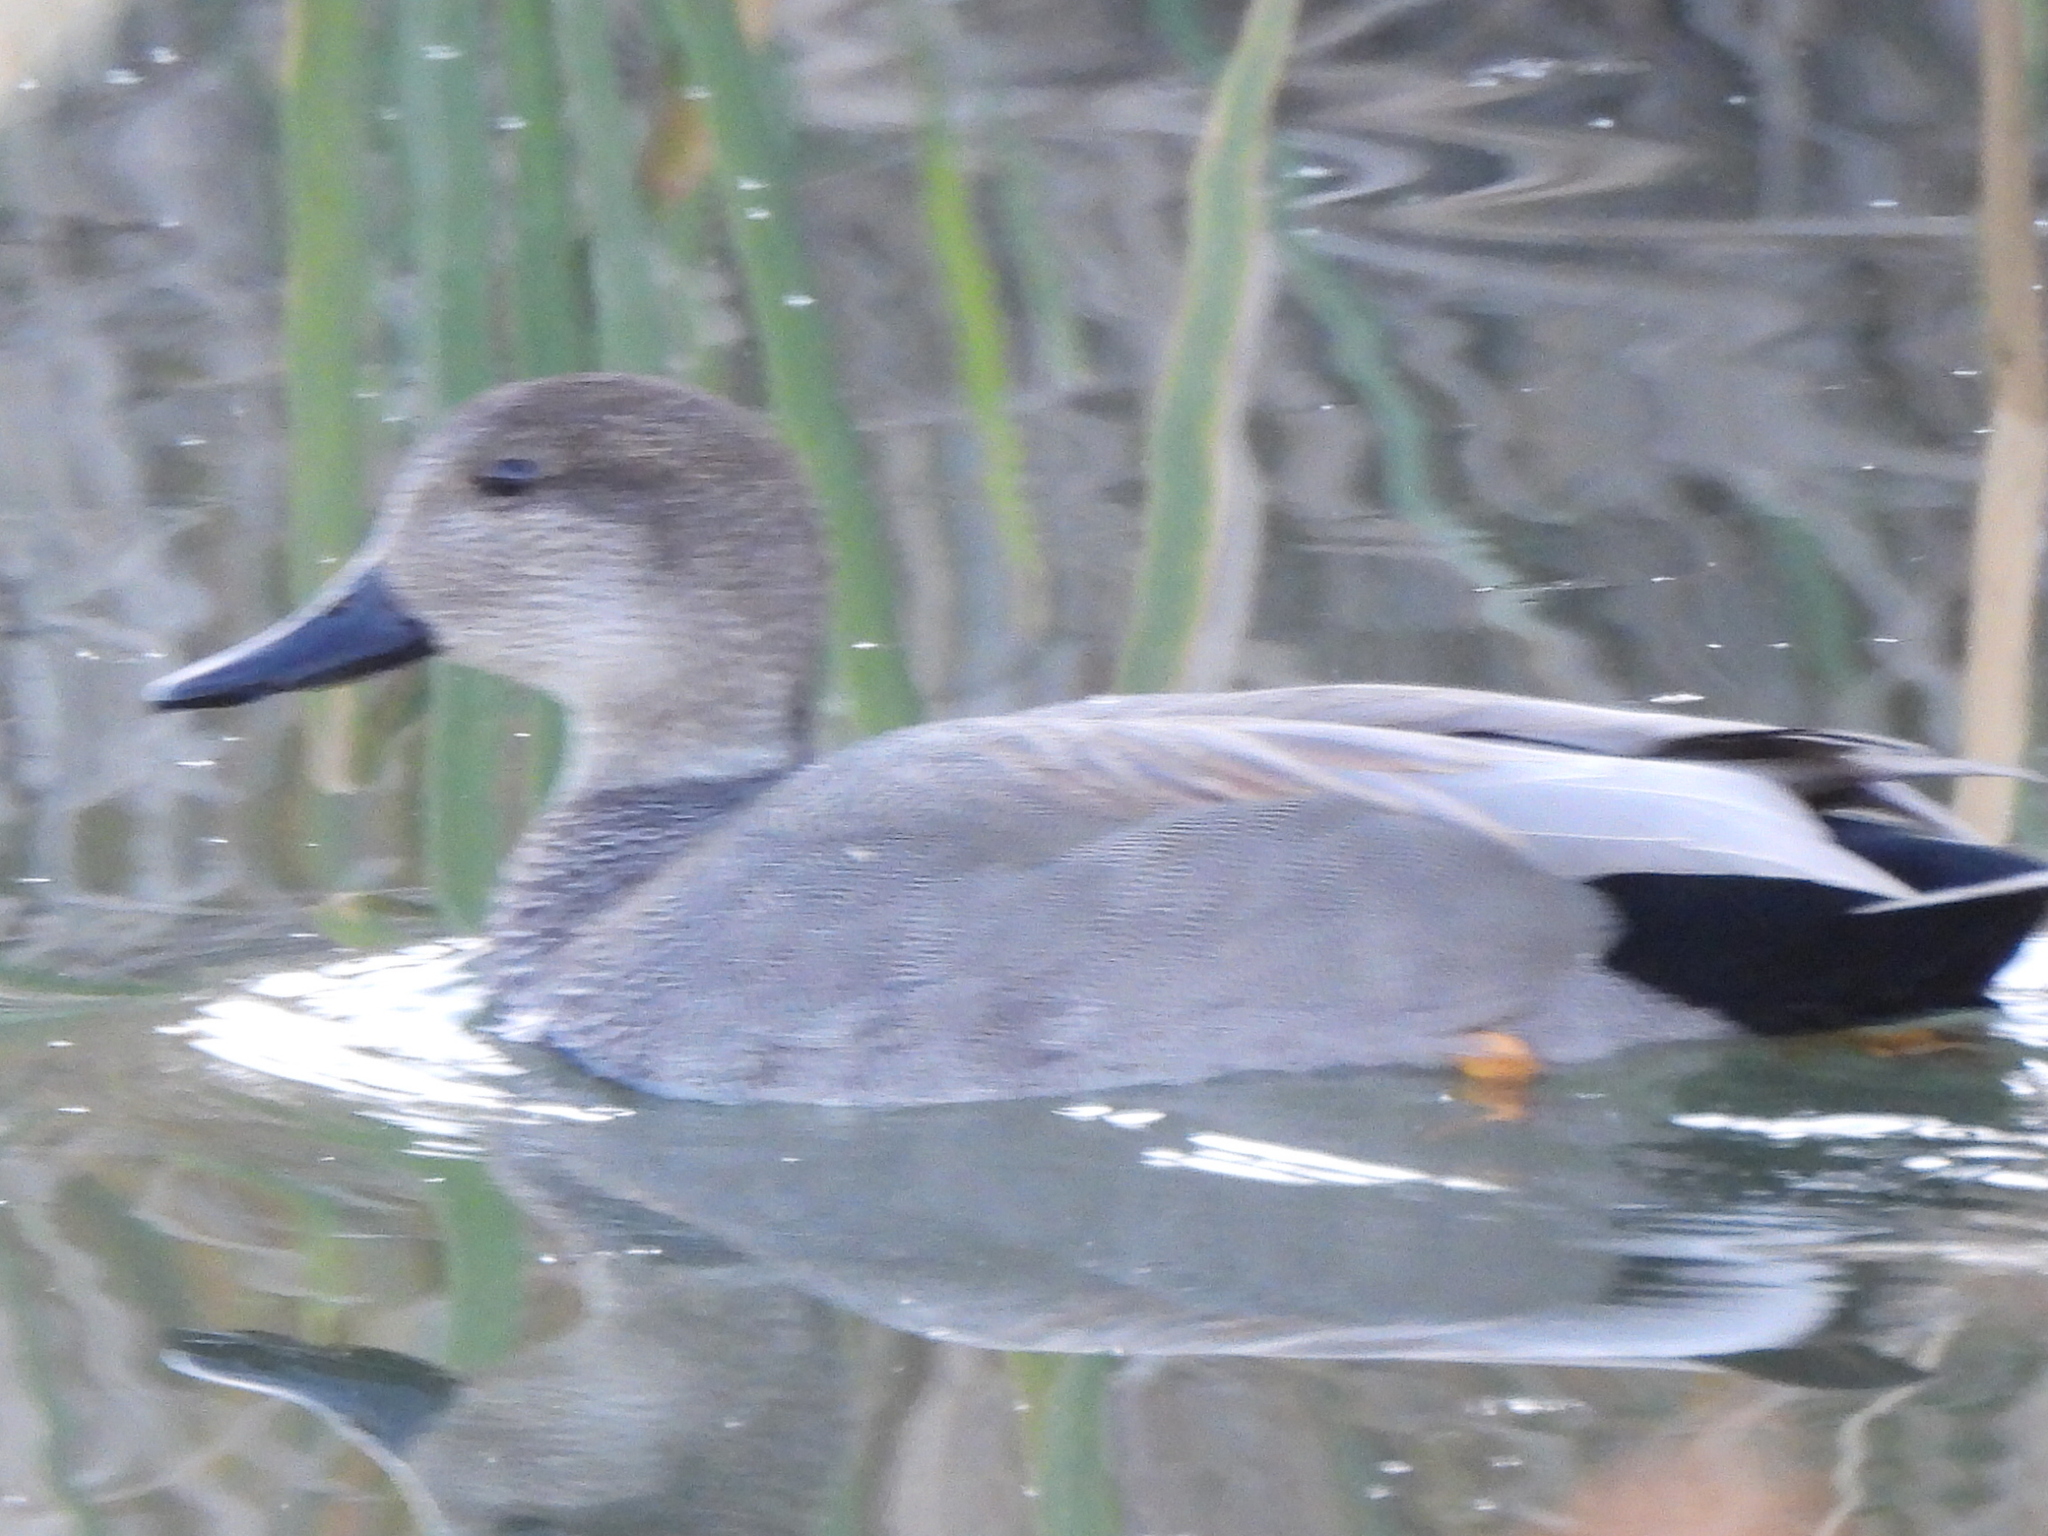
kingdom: Animalia
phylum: Chordata
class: Aves
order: Anseriformes
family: Anatidae
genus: Mareca
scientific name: Mareca strepera
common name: Gadwall
